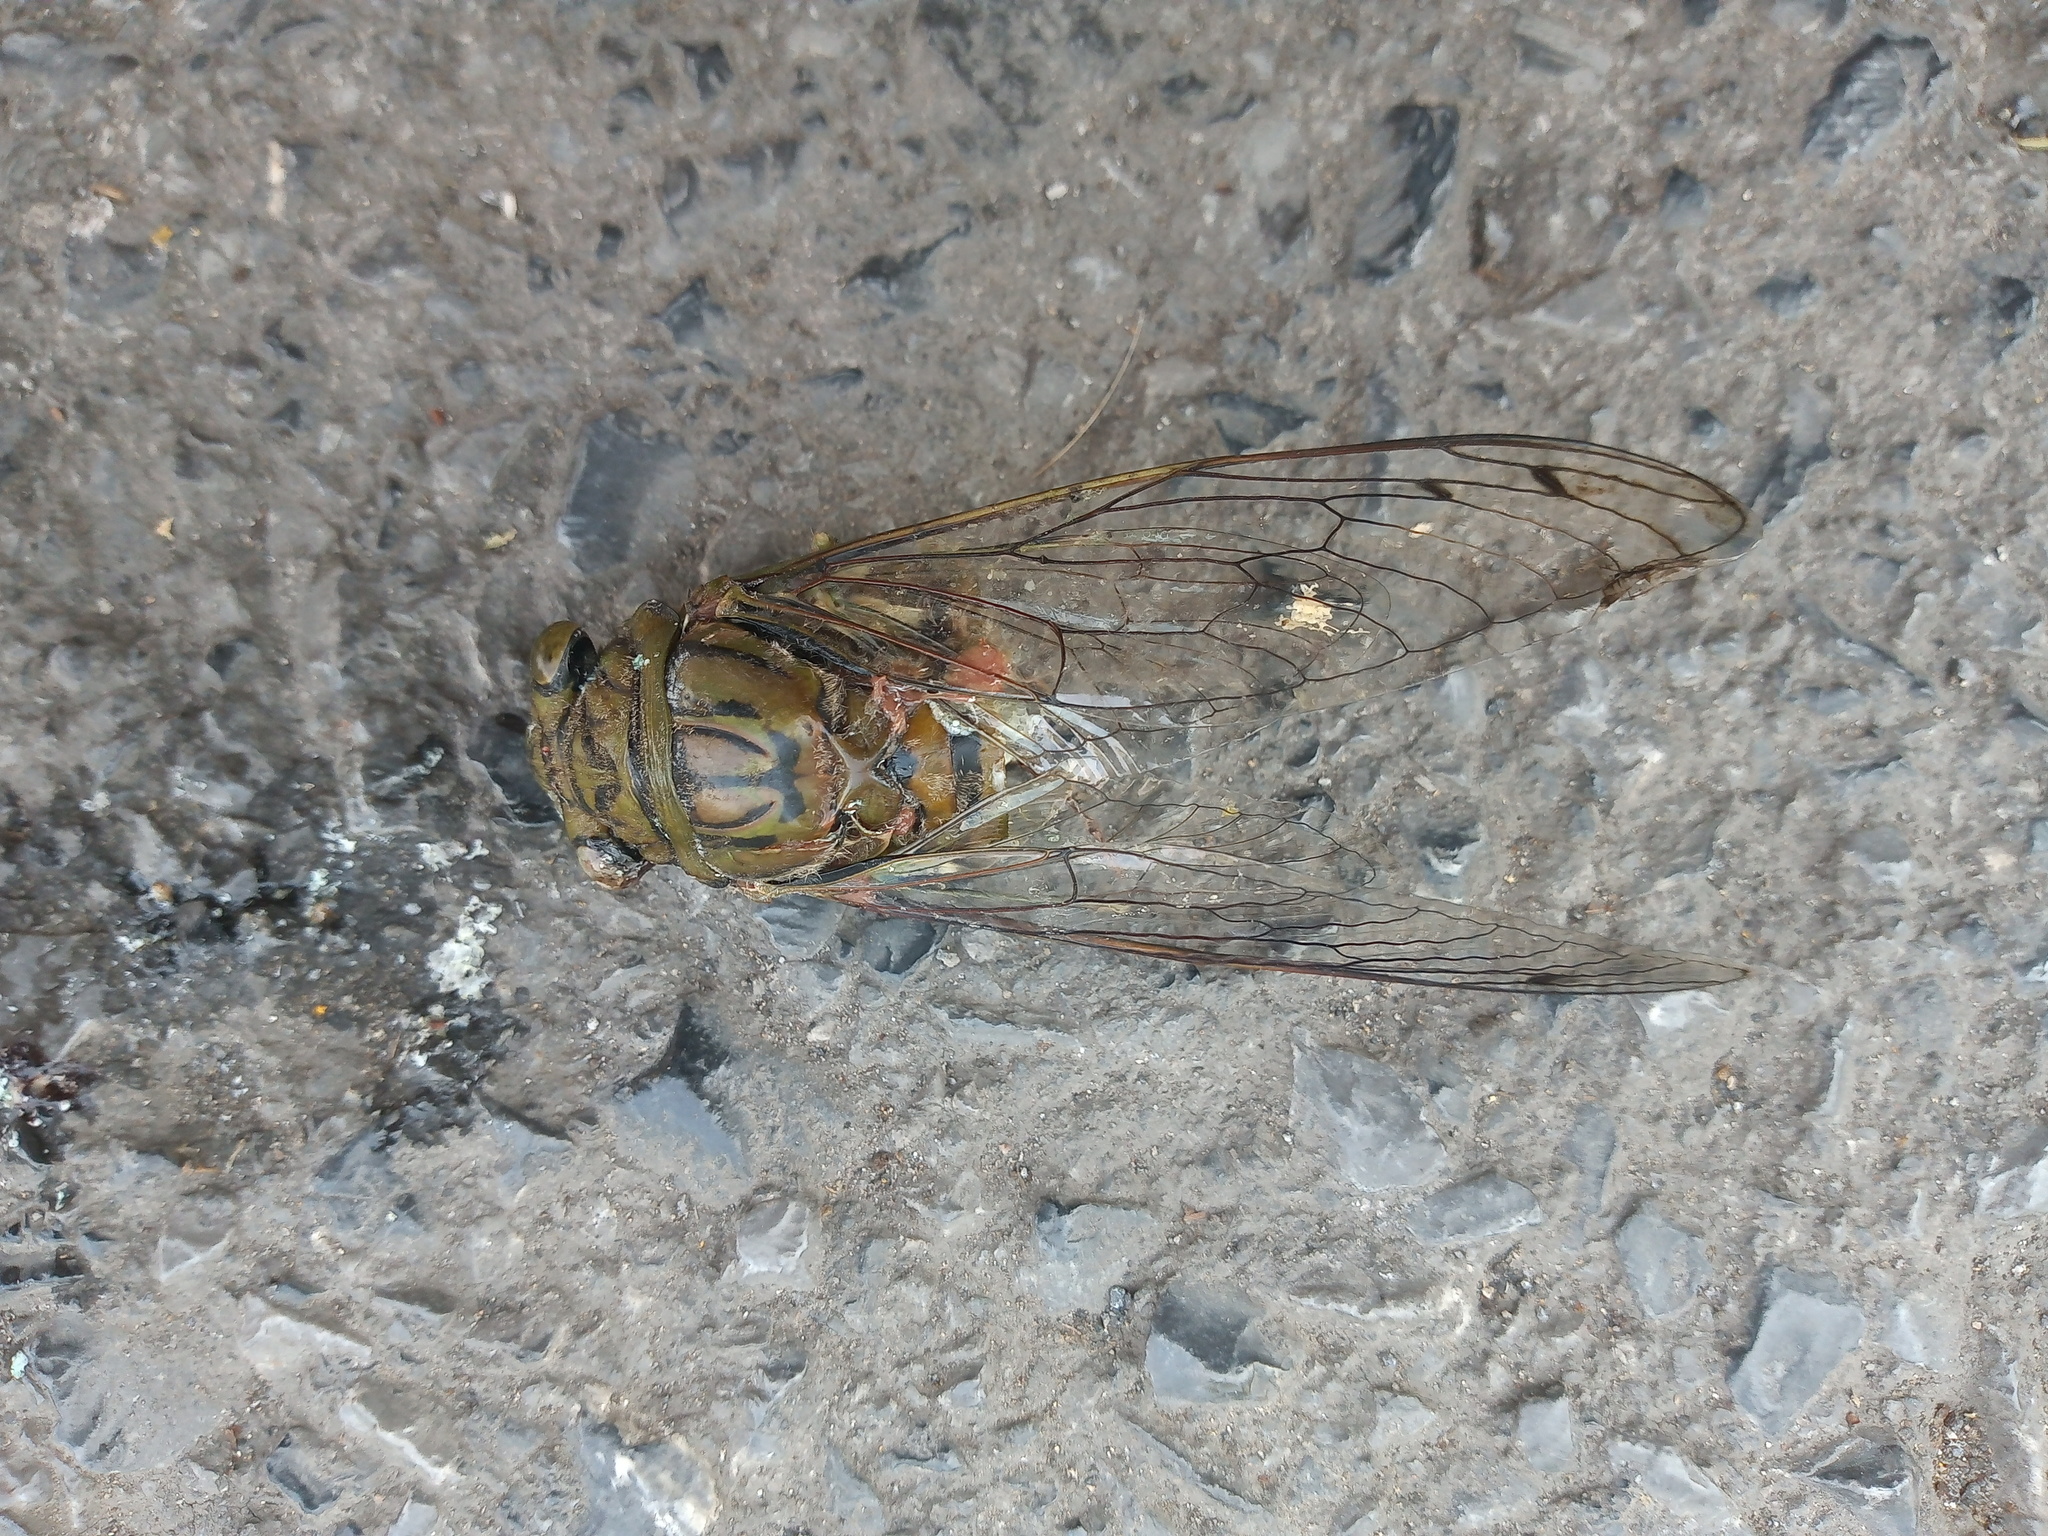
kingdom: Animalia
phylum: Arthropoda
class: Insecta
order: Hemiptera
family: Cicadidae
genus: Quesada
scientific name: Quesada gigas
